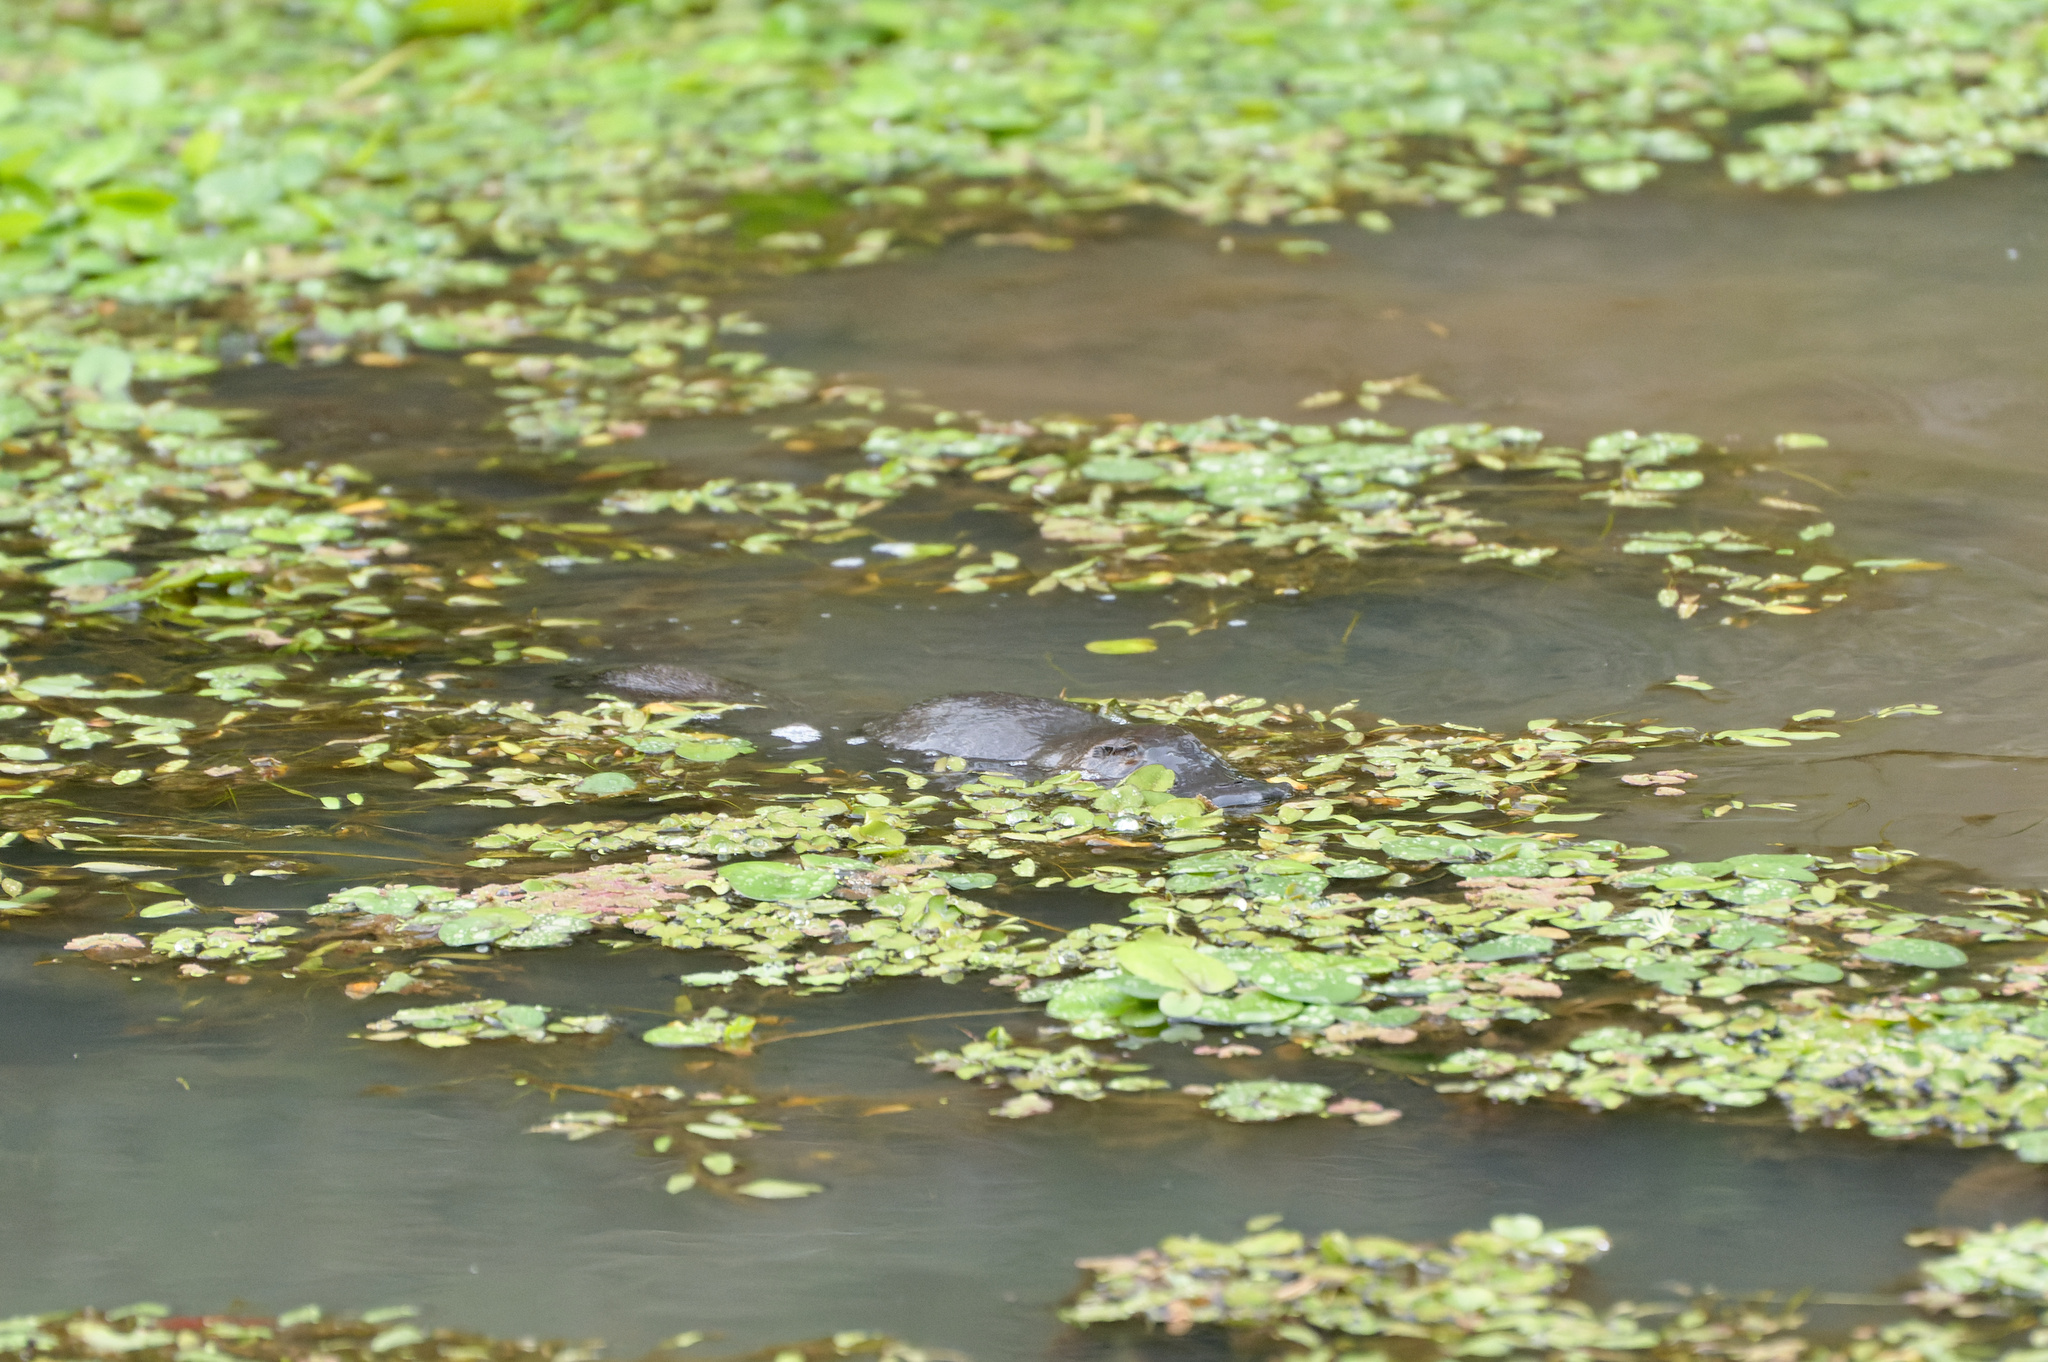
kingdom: Animalia
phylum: Chordata
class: Mammalia
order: Monotremata
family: Ornithorhynchidae
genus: Ornithorhynchus
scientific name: Ornithorhynchus anatinus
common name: Platypus
